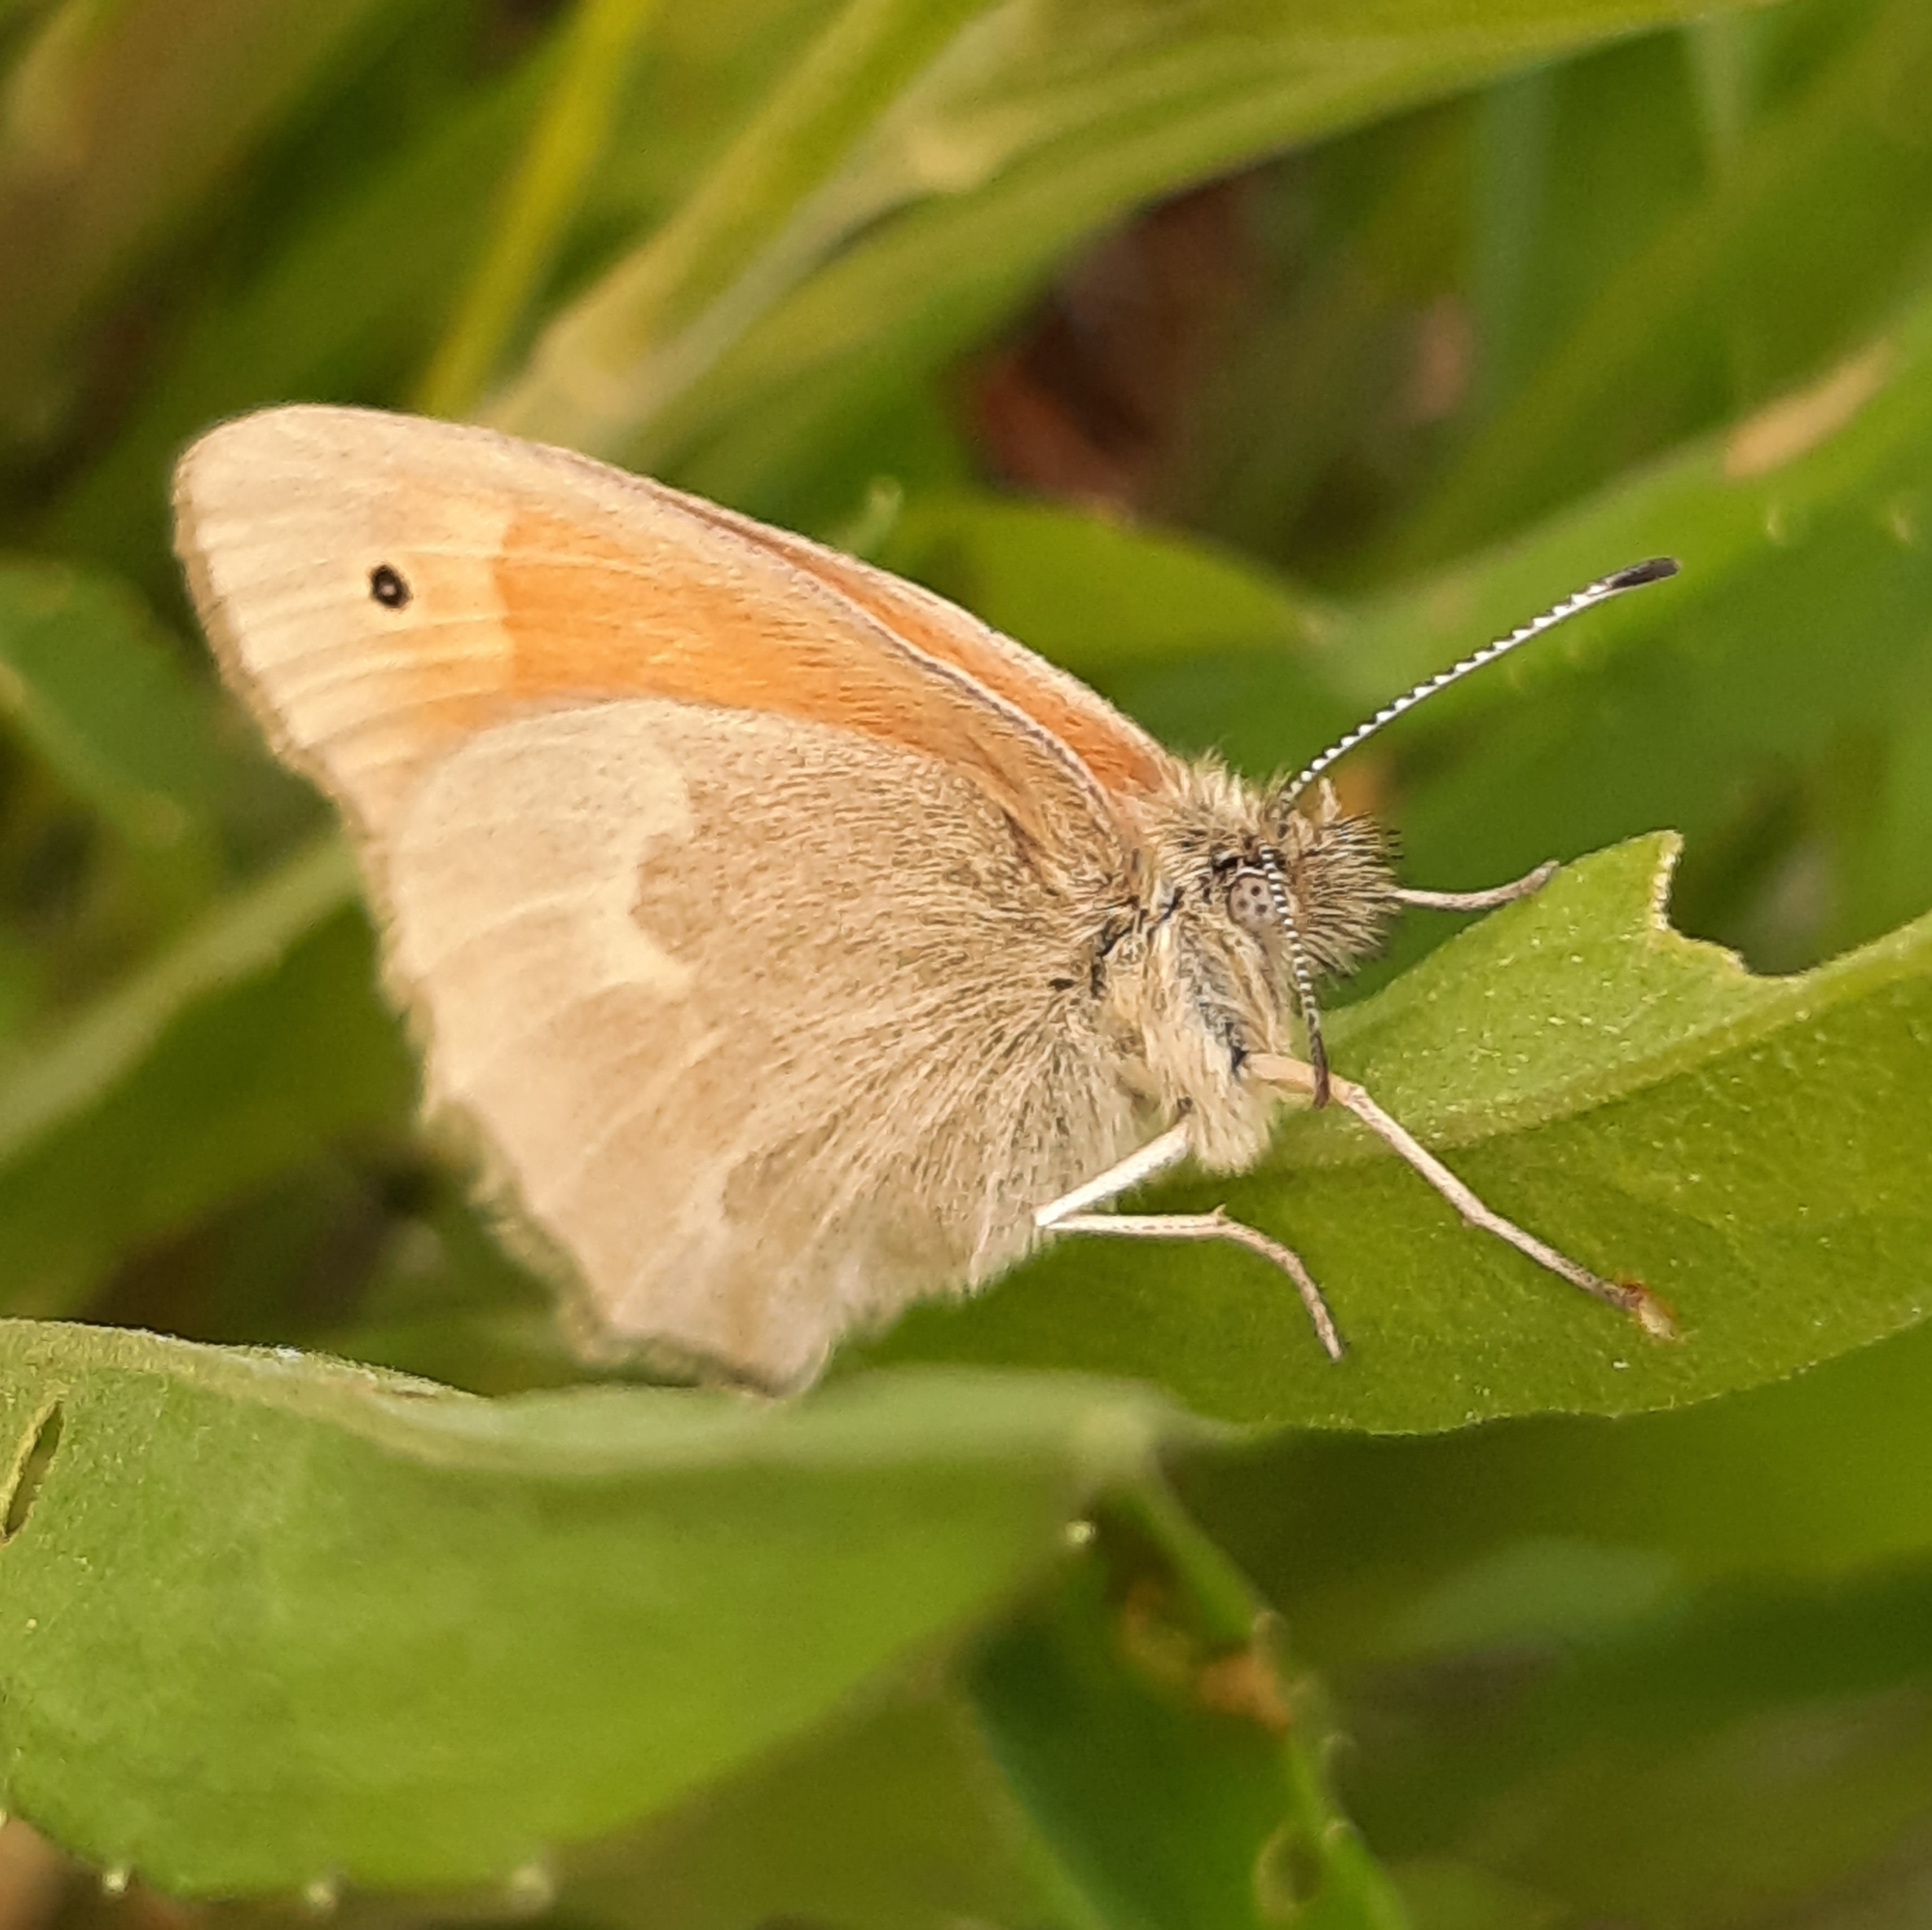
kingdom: Animalia
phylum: Arthropoda
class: Insecta
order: Lepidoptera
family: Nymphalidae
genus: Coenonympha
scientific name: Coenonympha california
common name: Common ringlet
